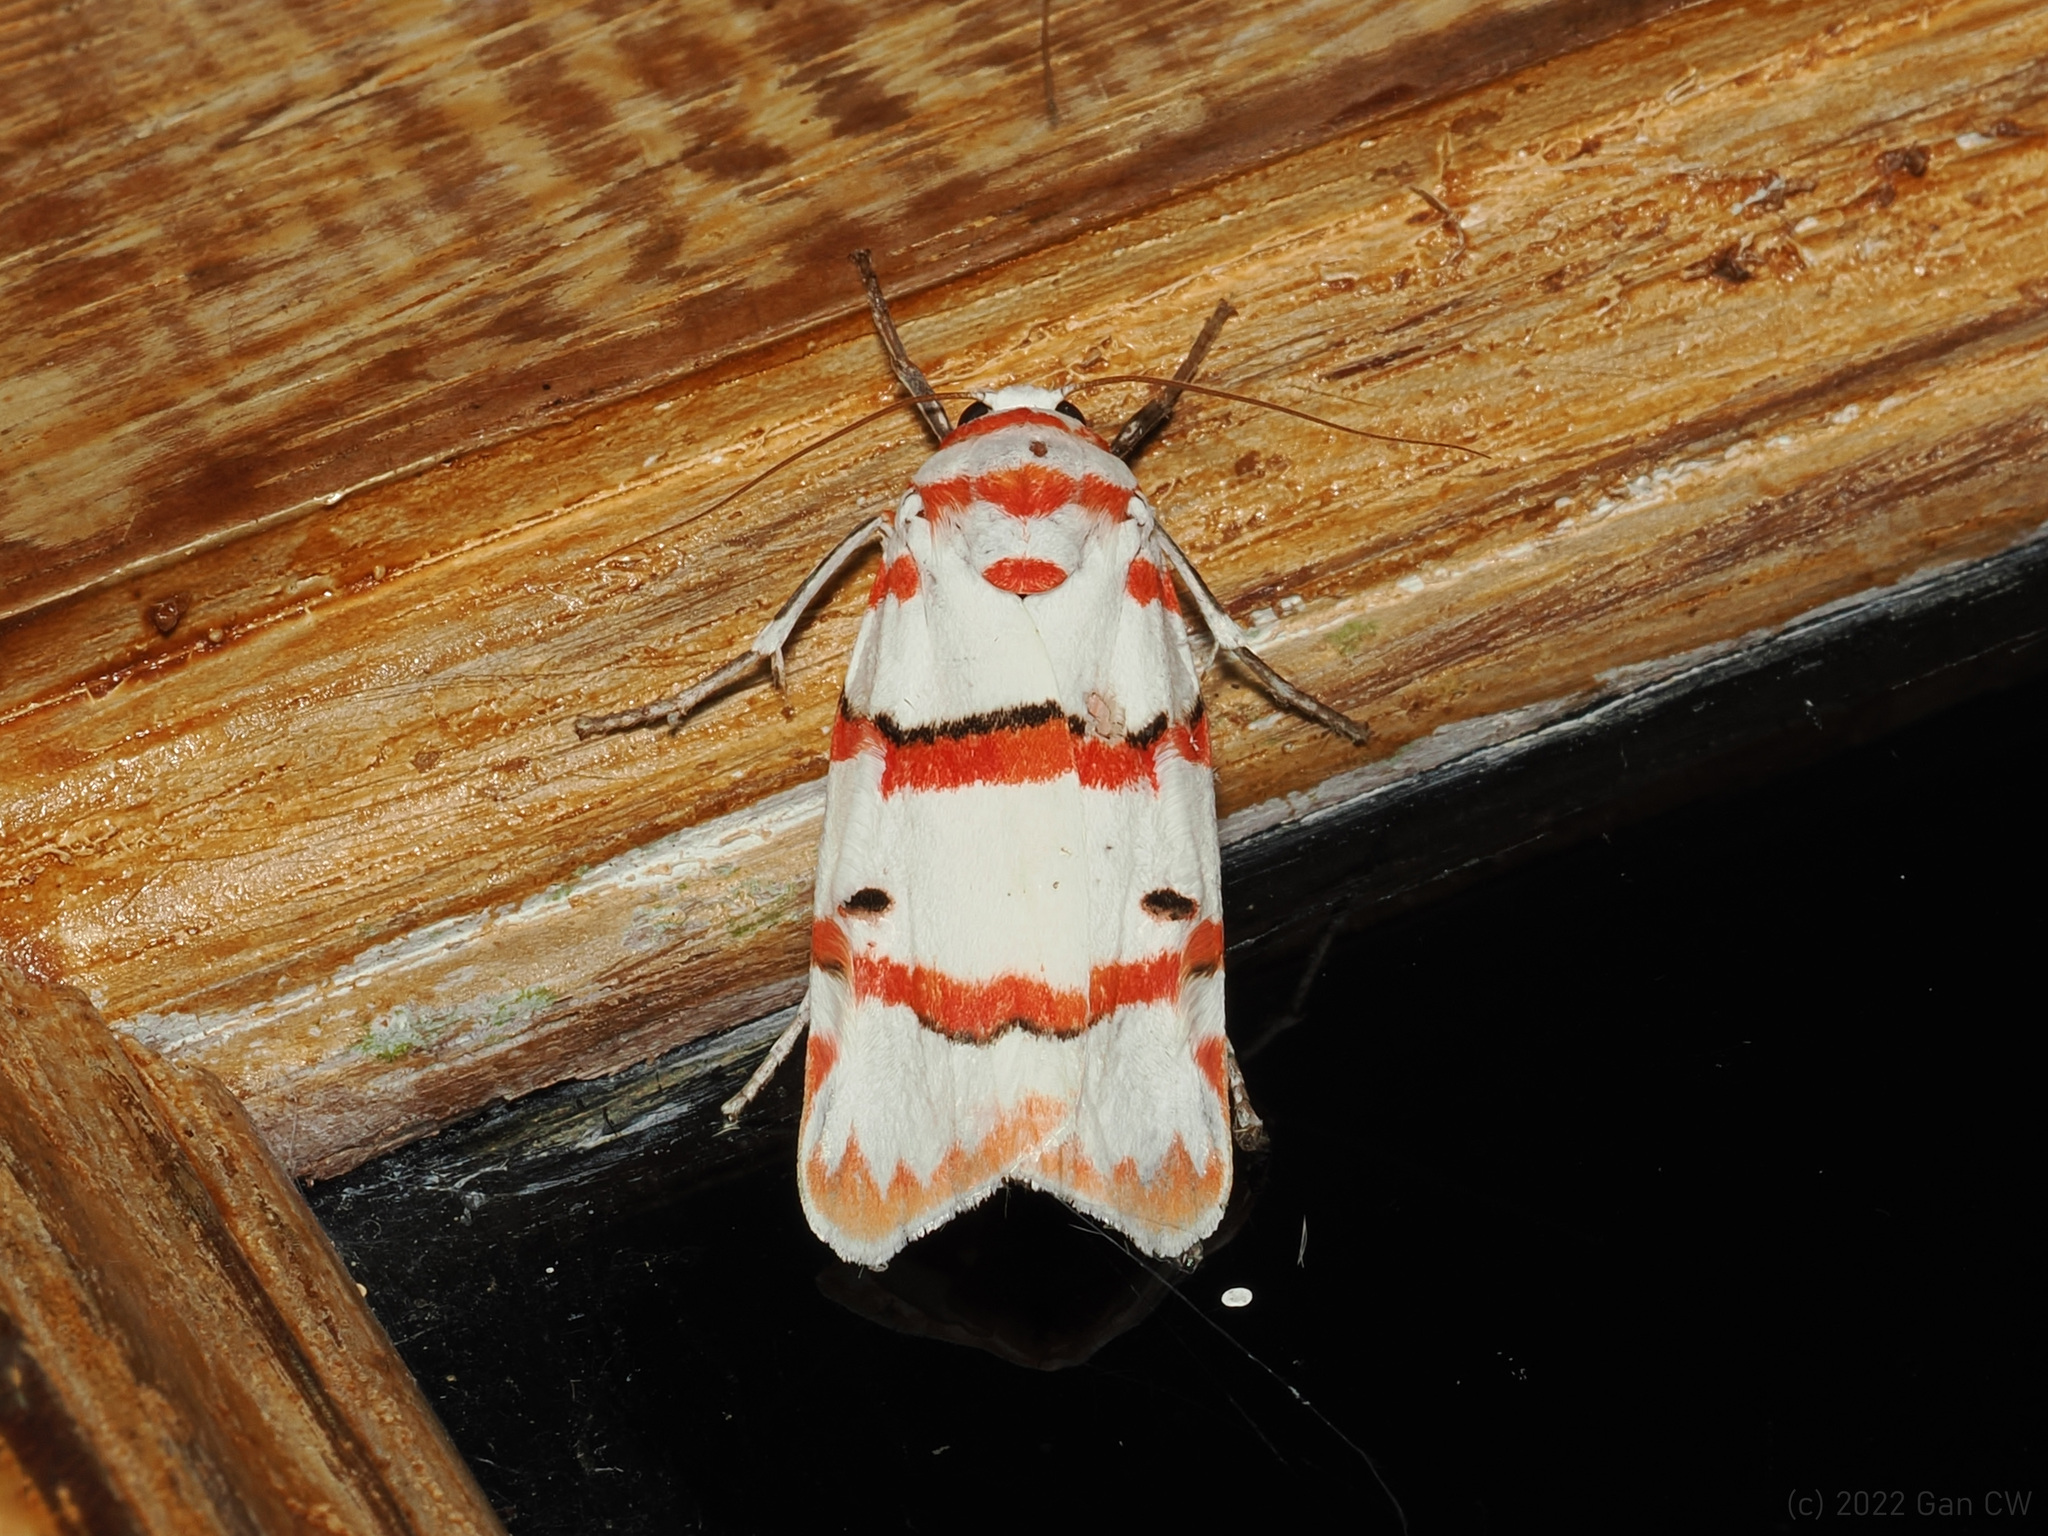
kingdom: Animalia
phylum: Arthropoda
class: Insecta
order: Lepidoptera
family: Erebidae
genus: Cyana
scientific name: Cyana perornata
